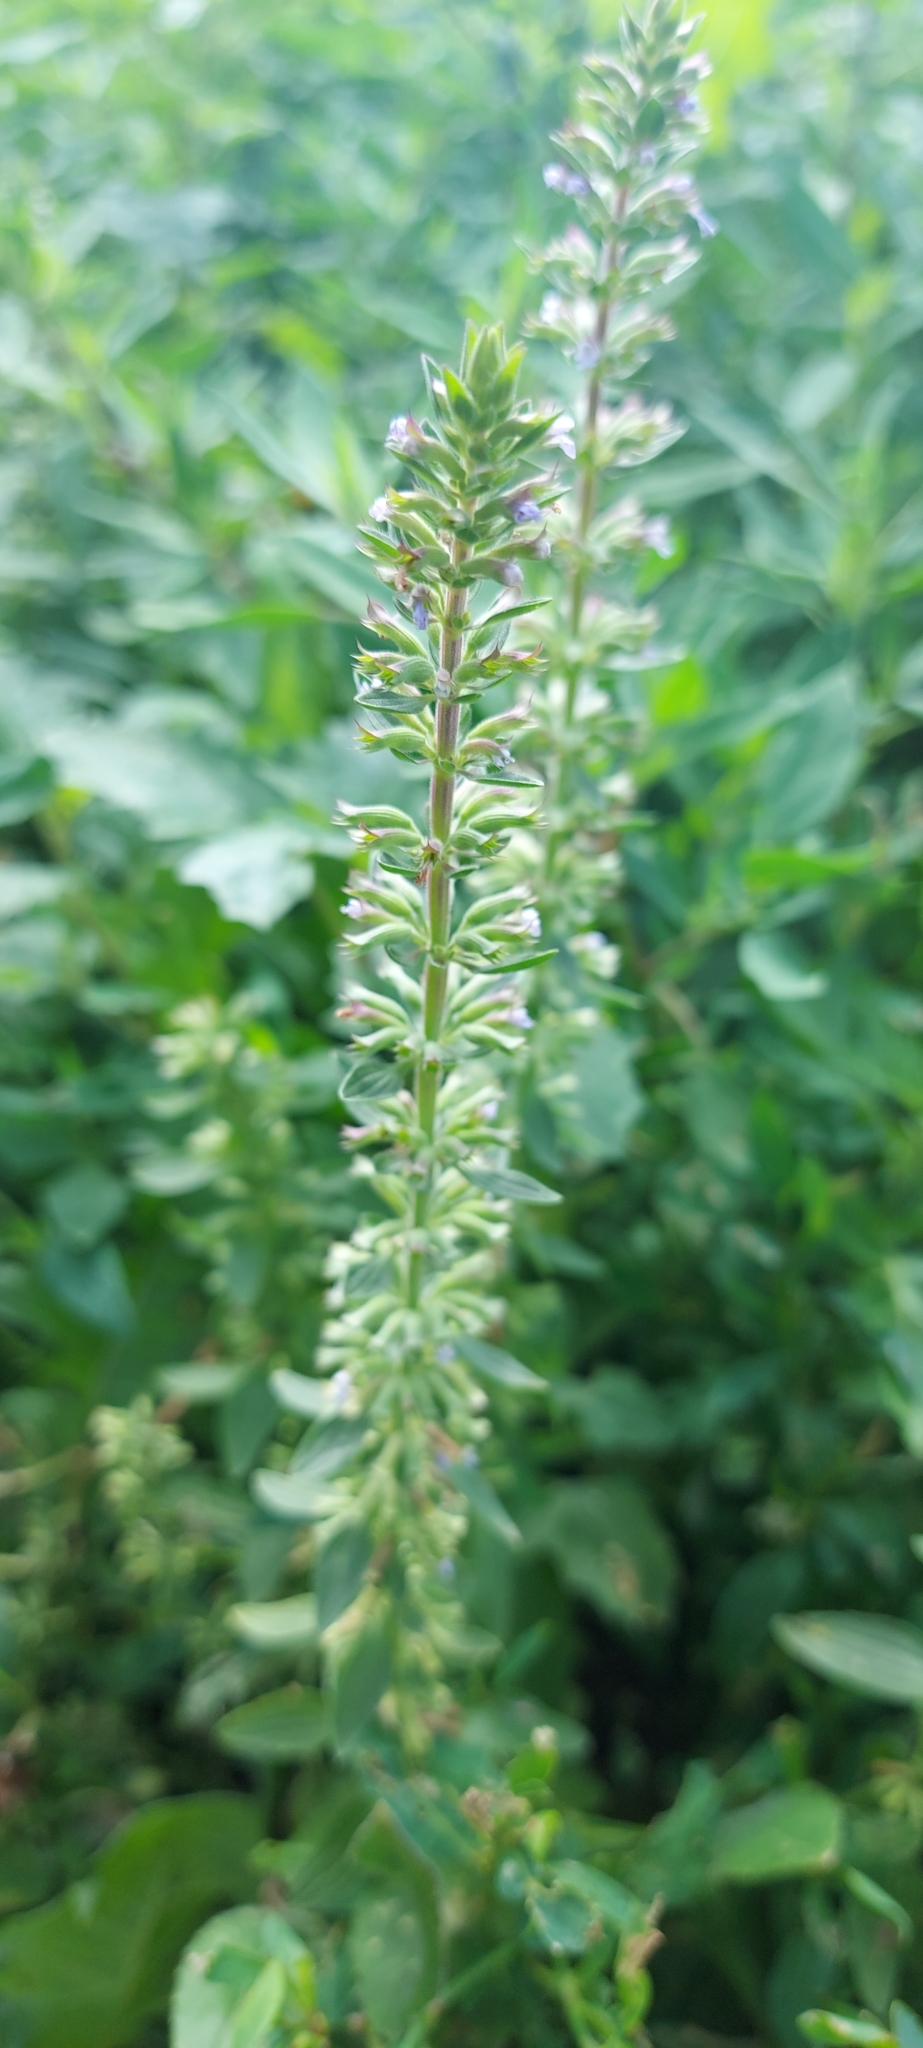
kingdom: Plantae
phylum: Tracheophyta
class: Magnoliopsida
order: Lamiales
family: Lamiaceae
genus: Dracocephalum
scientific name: Dracocephalum thymiflorum
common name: Thymeleaf dragonhead
